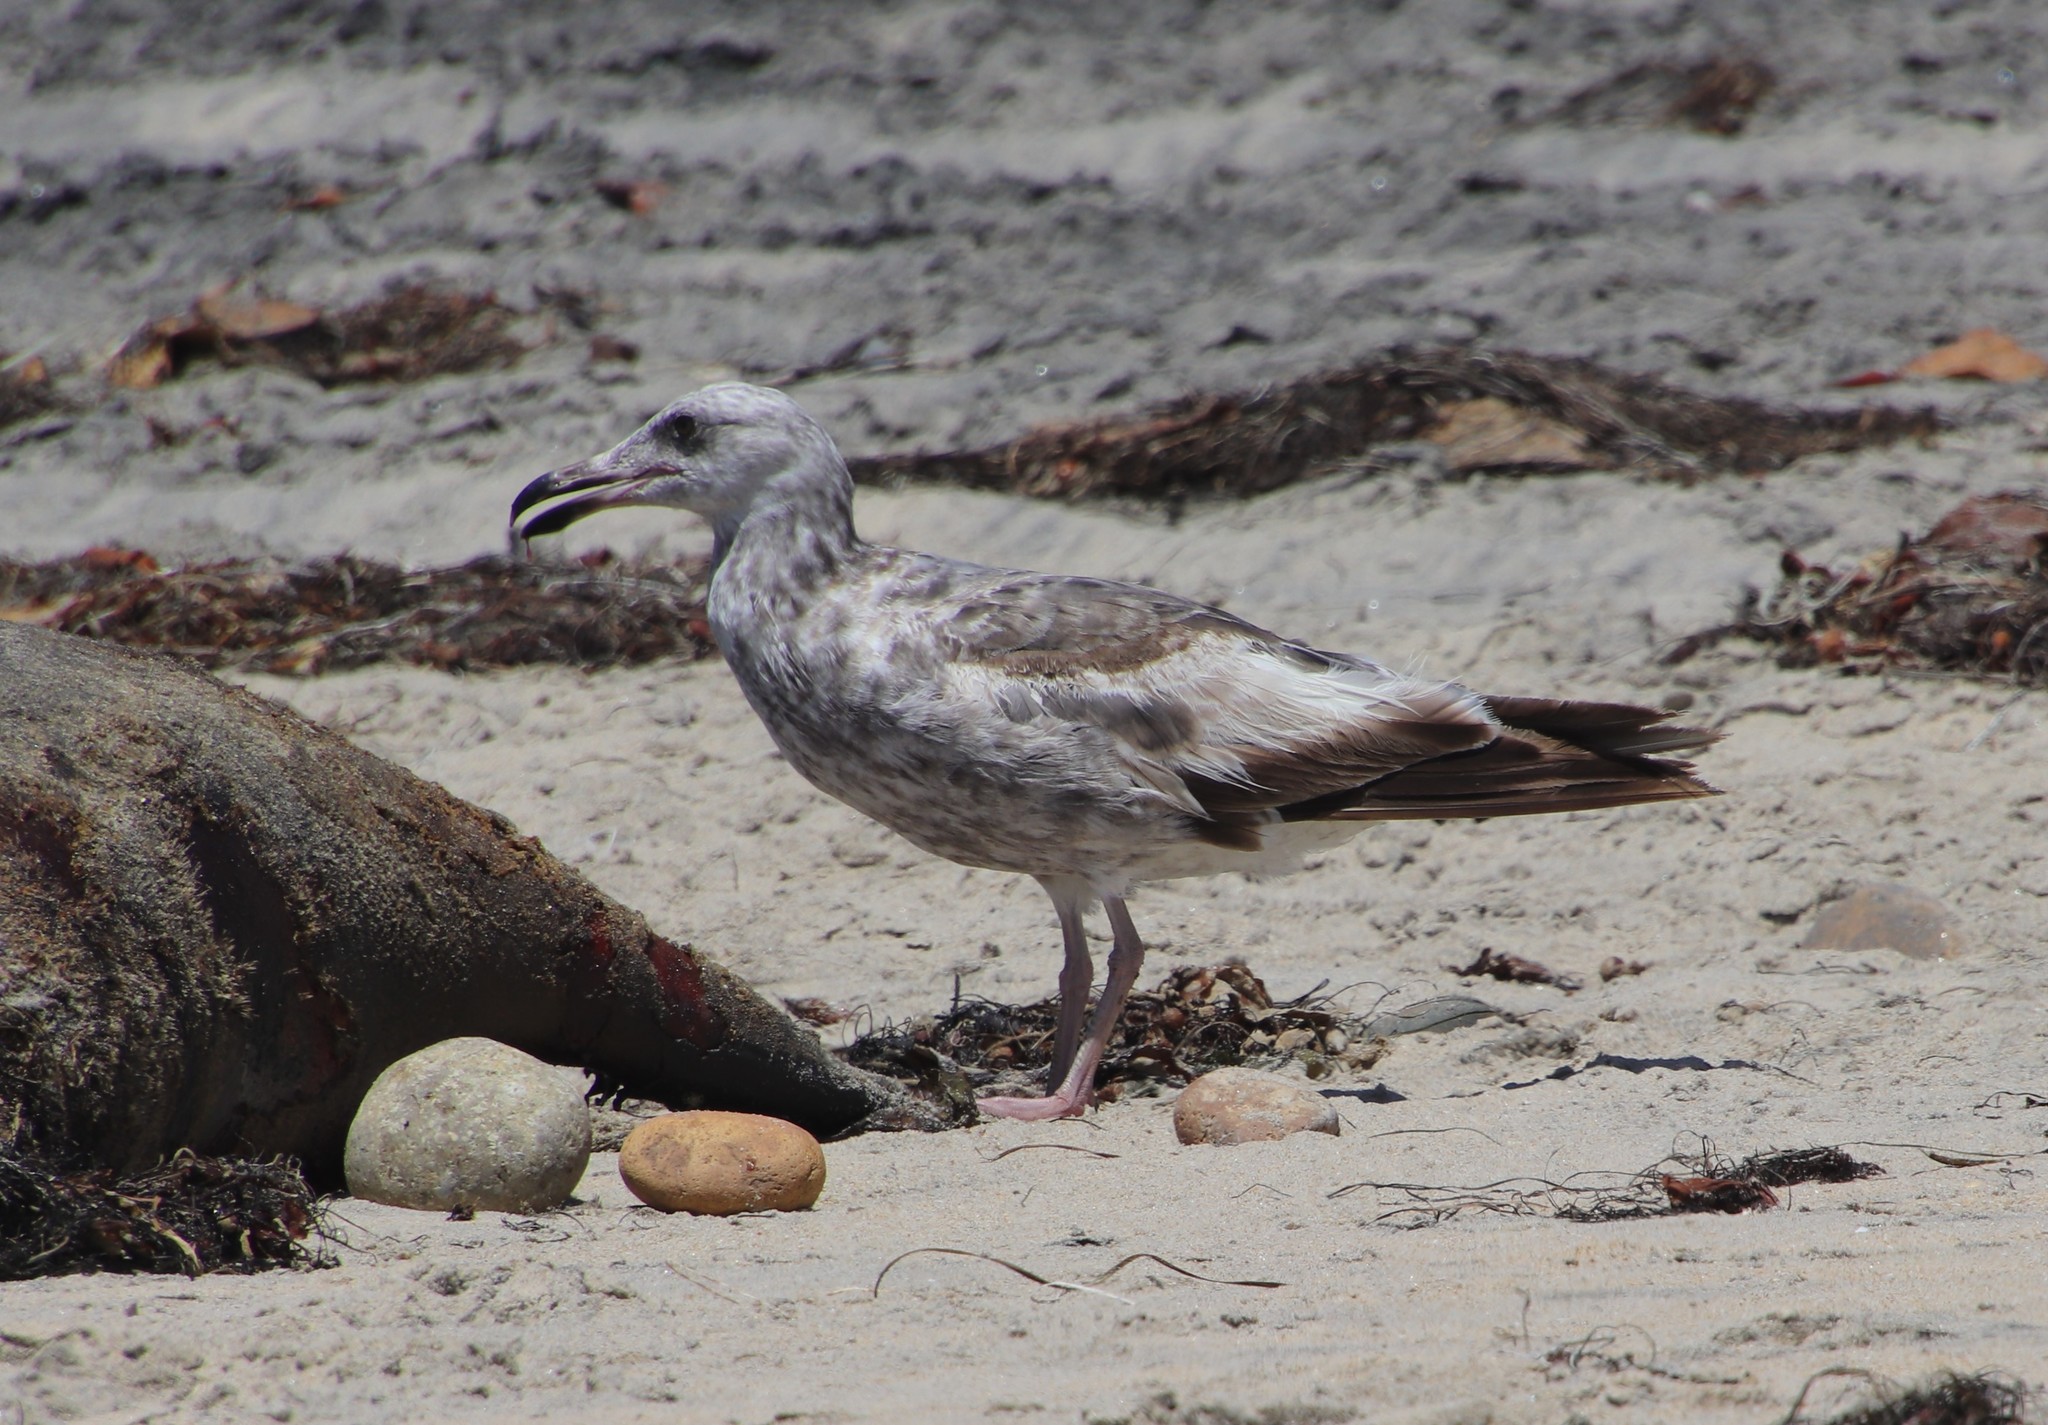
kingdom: Animalia
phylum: Chordata
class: Aves
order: Charadriiformes
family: Laridae
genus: Larus
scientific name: Larus occidentalis
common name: Western gull
